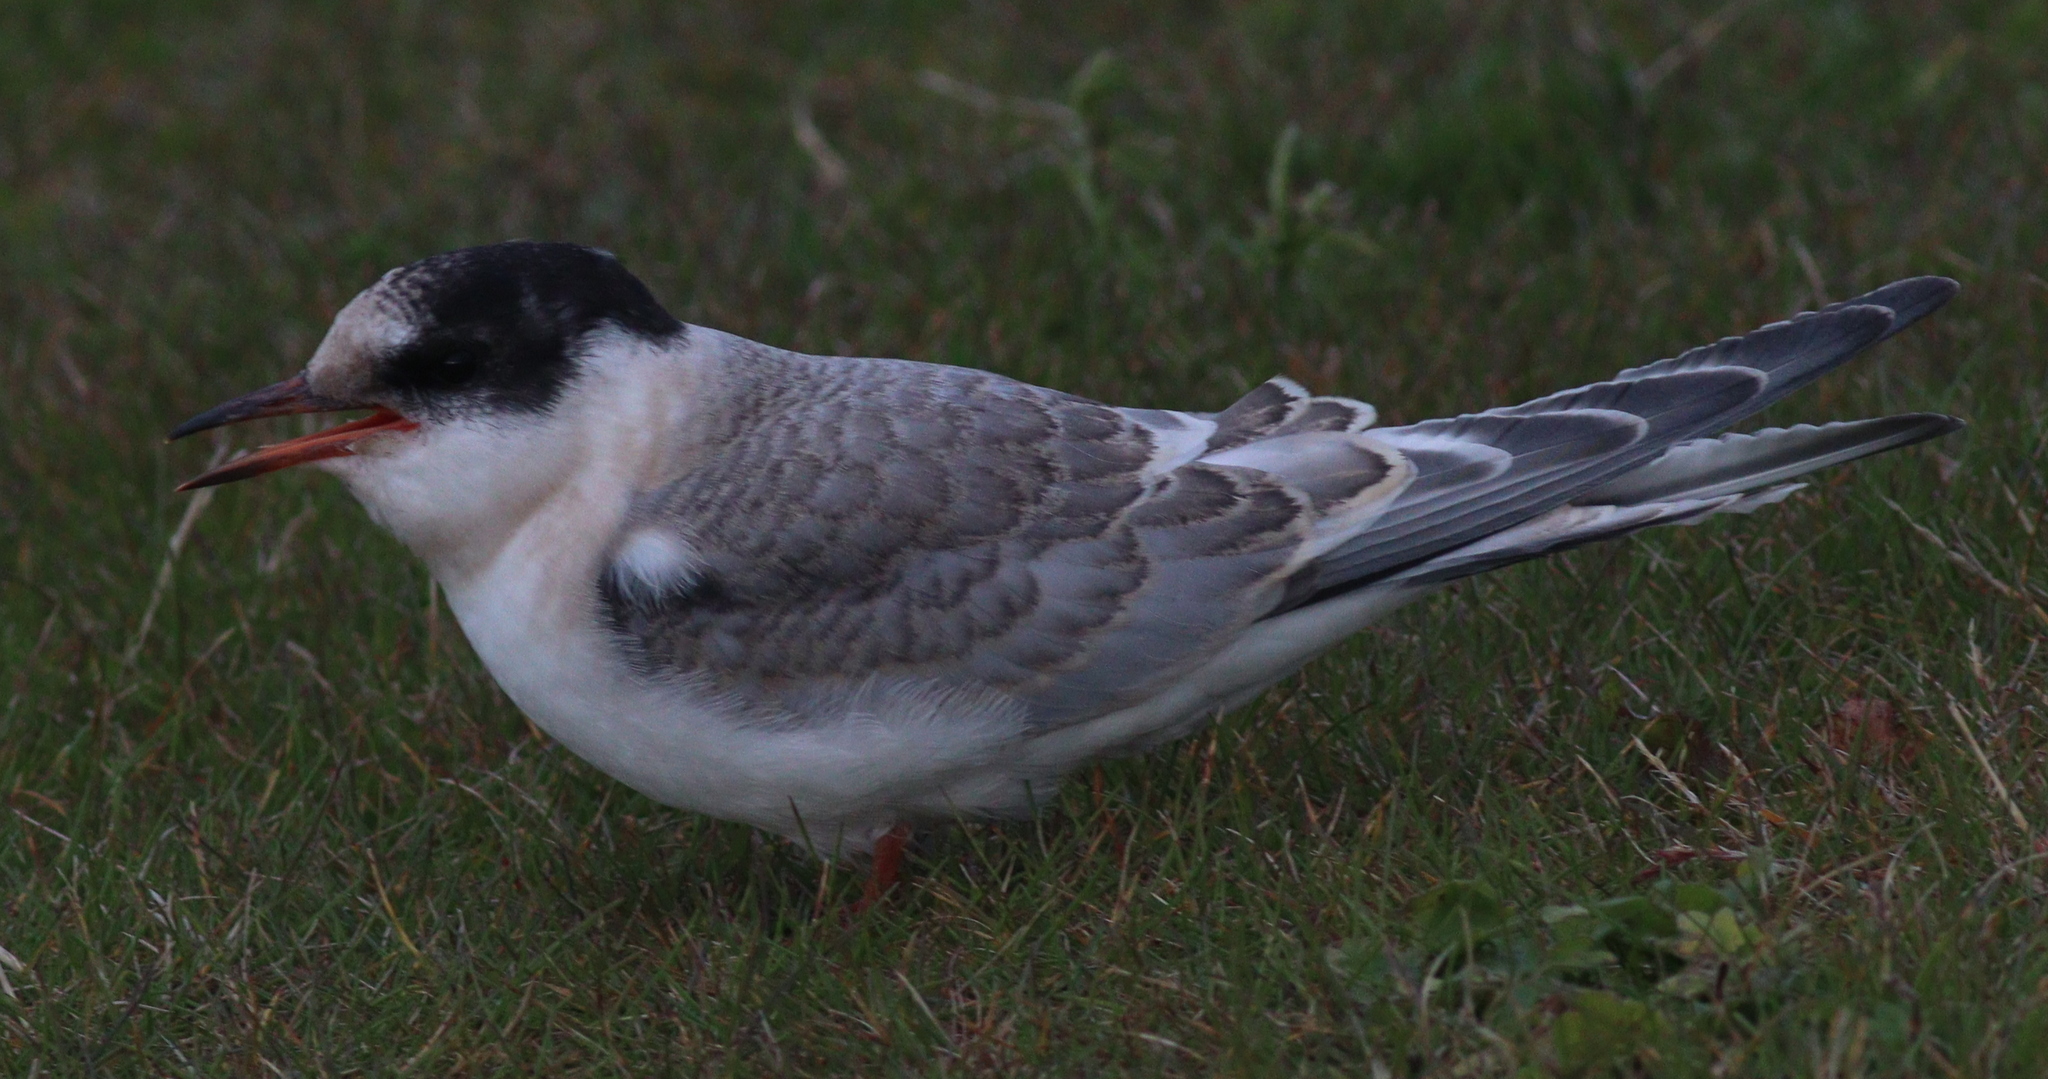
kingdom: Animalia
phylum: Chordata
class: Aves
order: Charadriiformes
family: Laridae
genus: Sterna
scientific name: Sterna paradisaea
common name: Arctic tern
